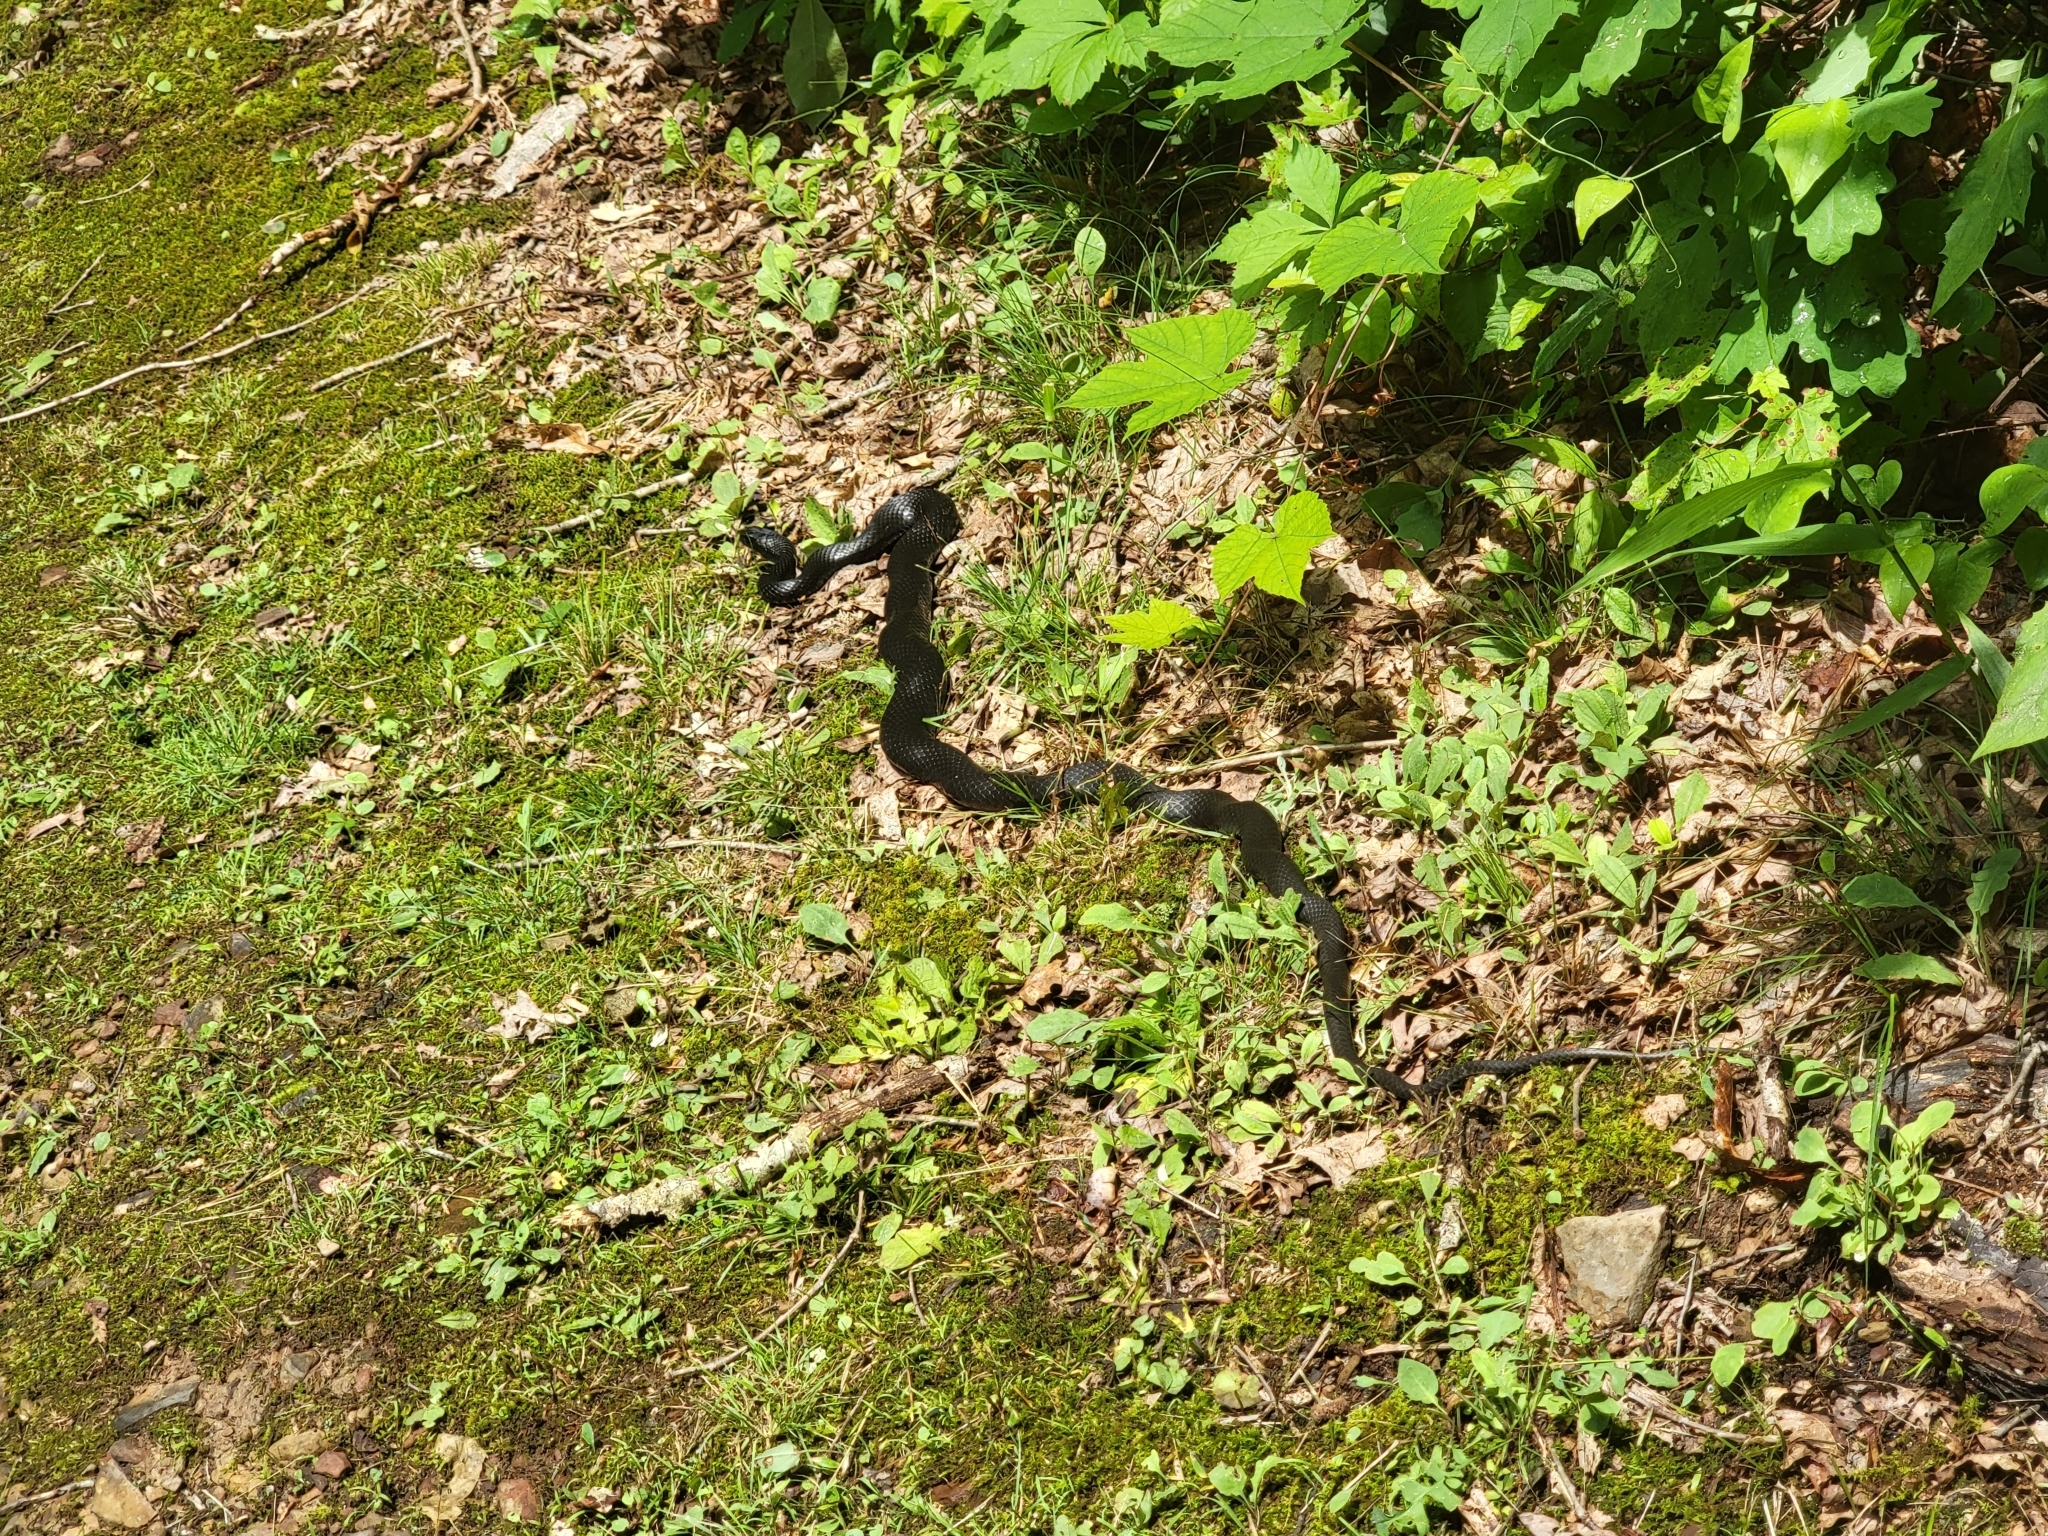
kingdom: Animalia
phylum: Chordata
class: Squamata
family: Colubridae
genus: Coluber
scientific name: Coluber constrictor
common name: Eastern racer
